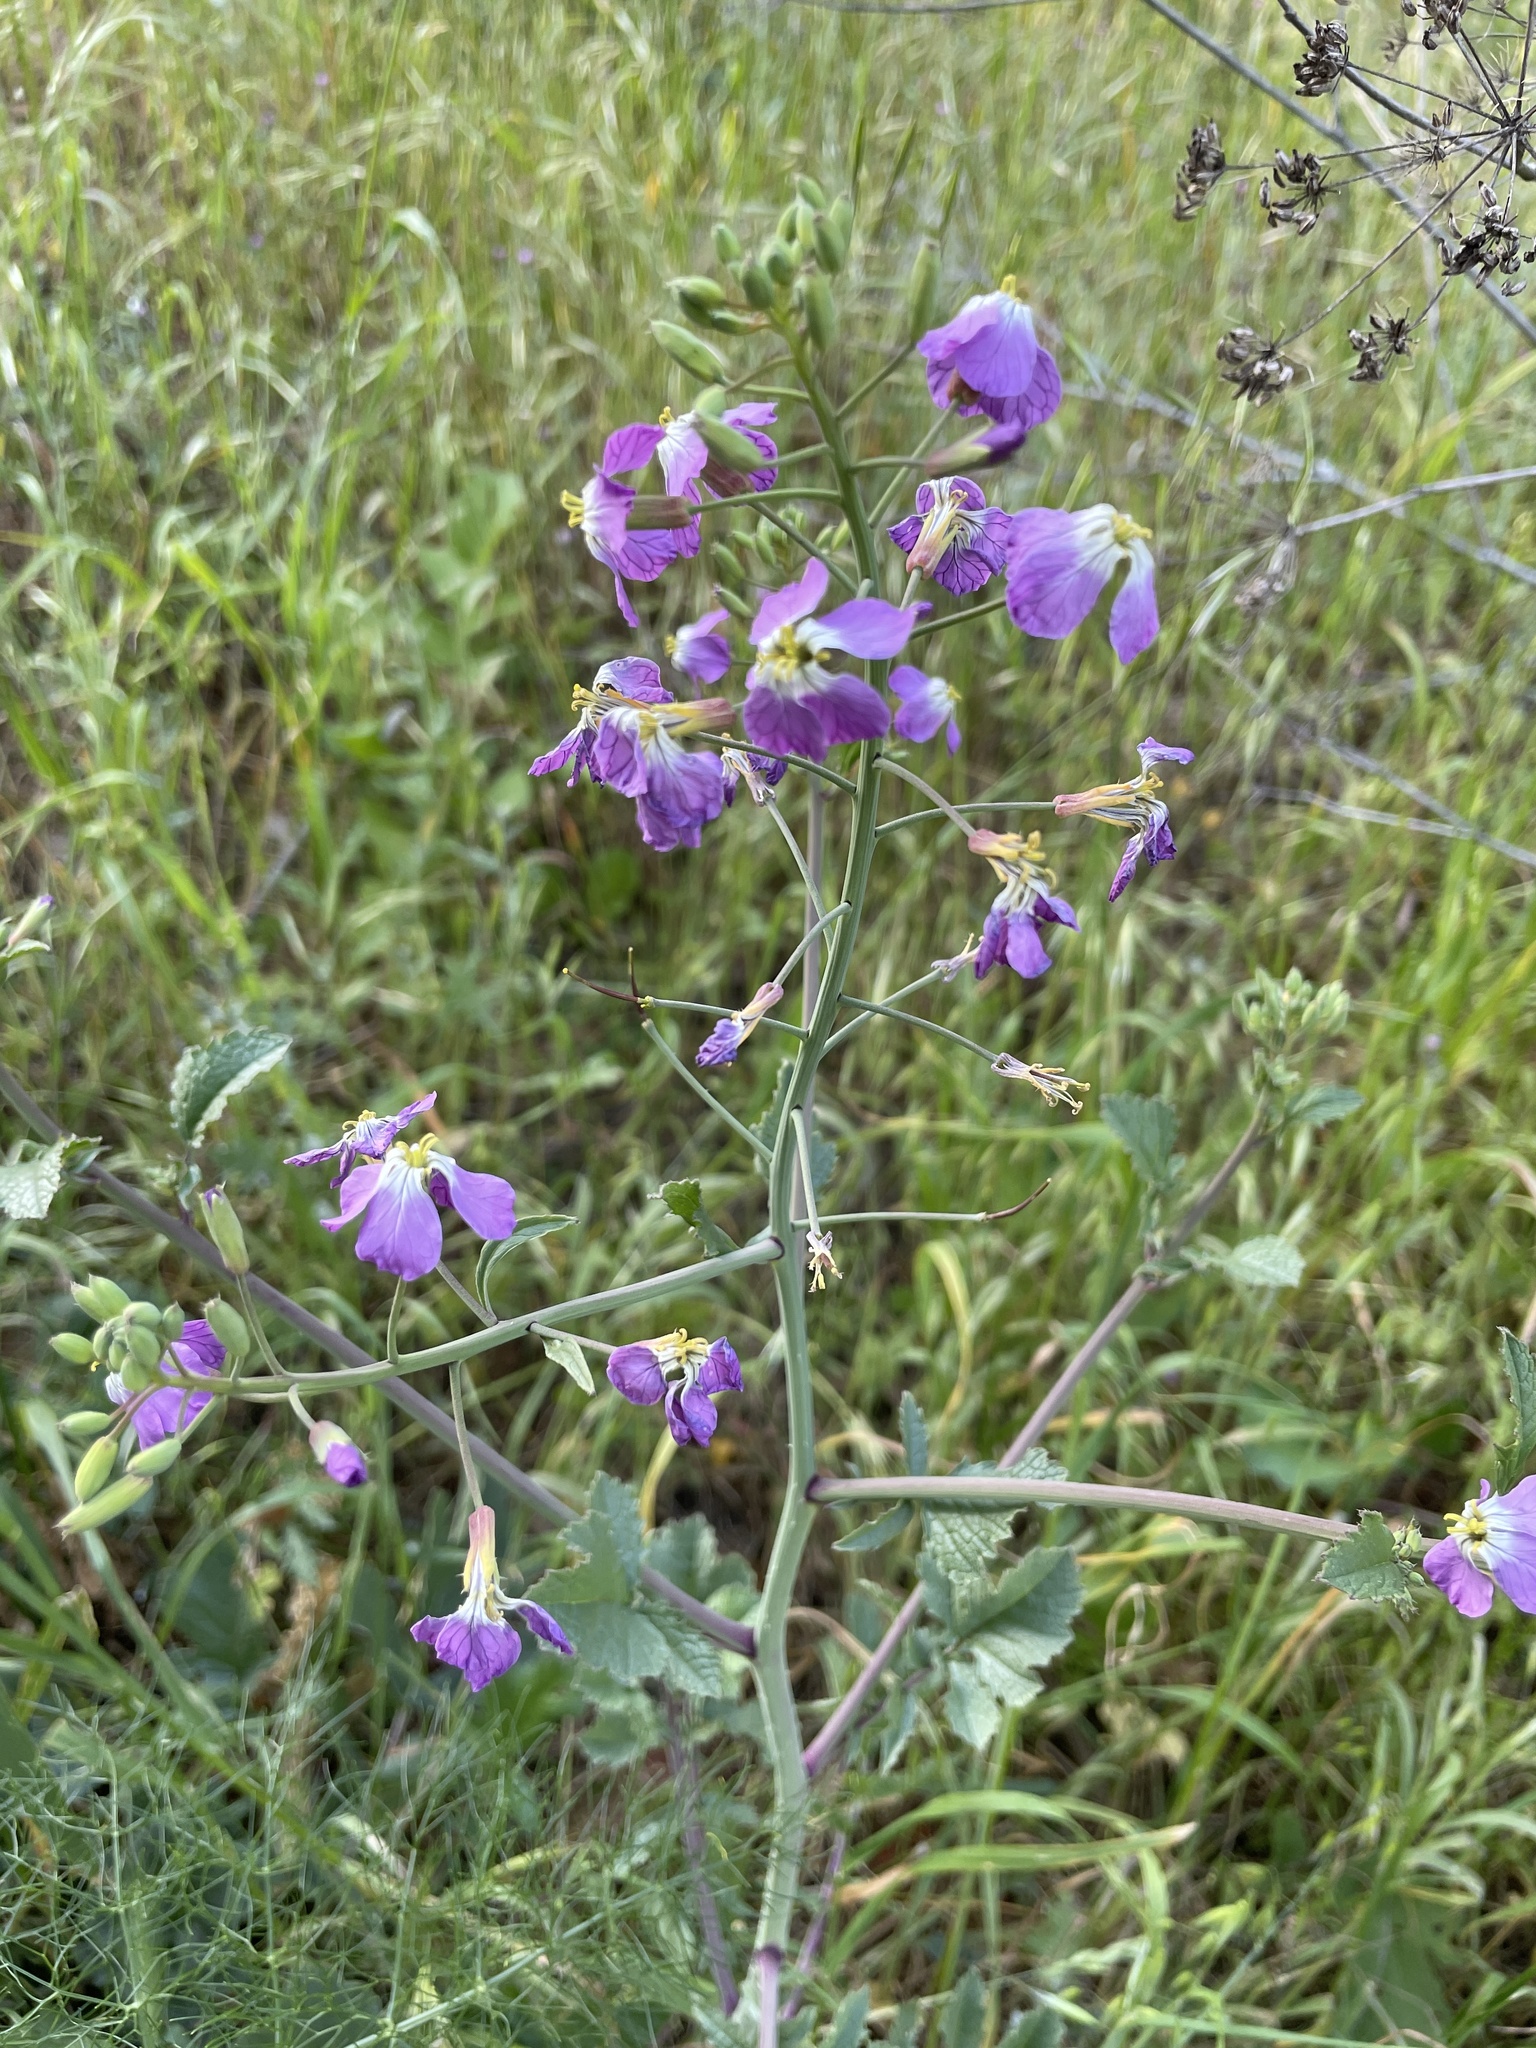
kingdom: Plantae
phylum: Tracheophyta
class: Magnoliopsida
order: Brassicales
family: Brassicaceae
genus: Raphanus
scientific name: Raphanus sativus
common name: Cultivated radish
